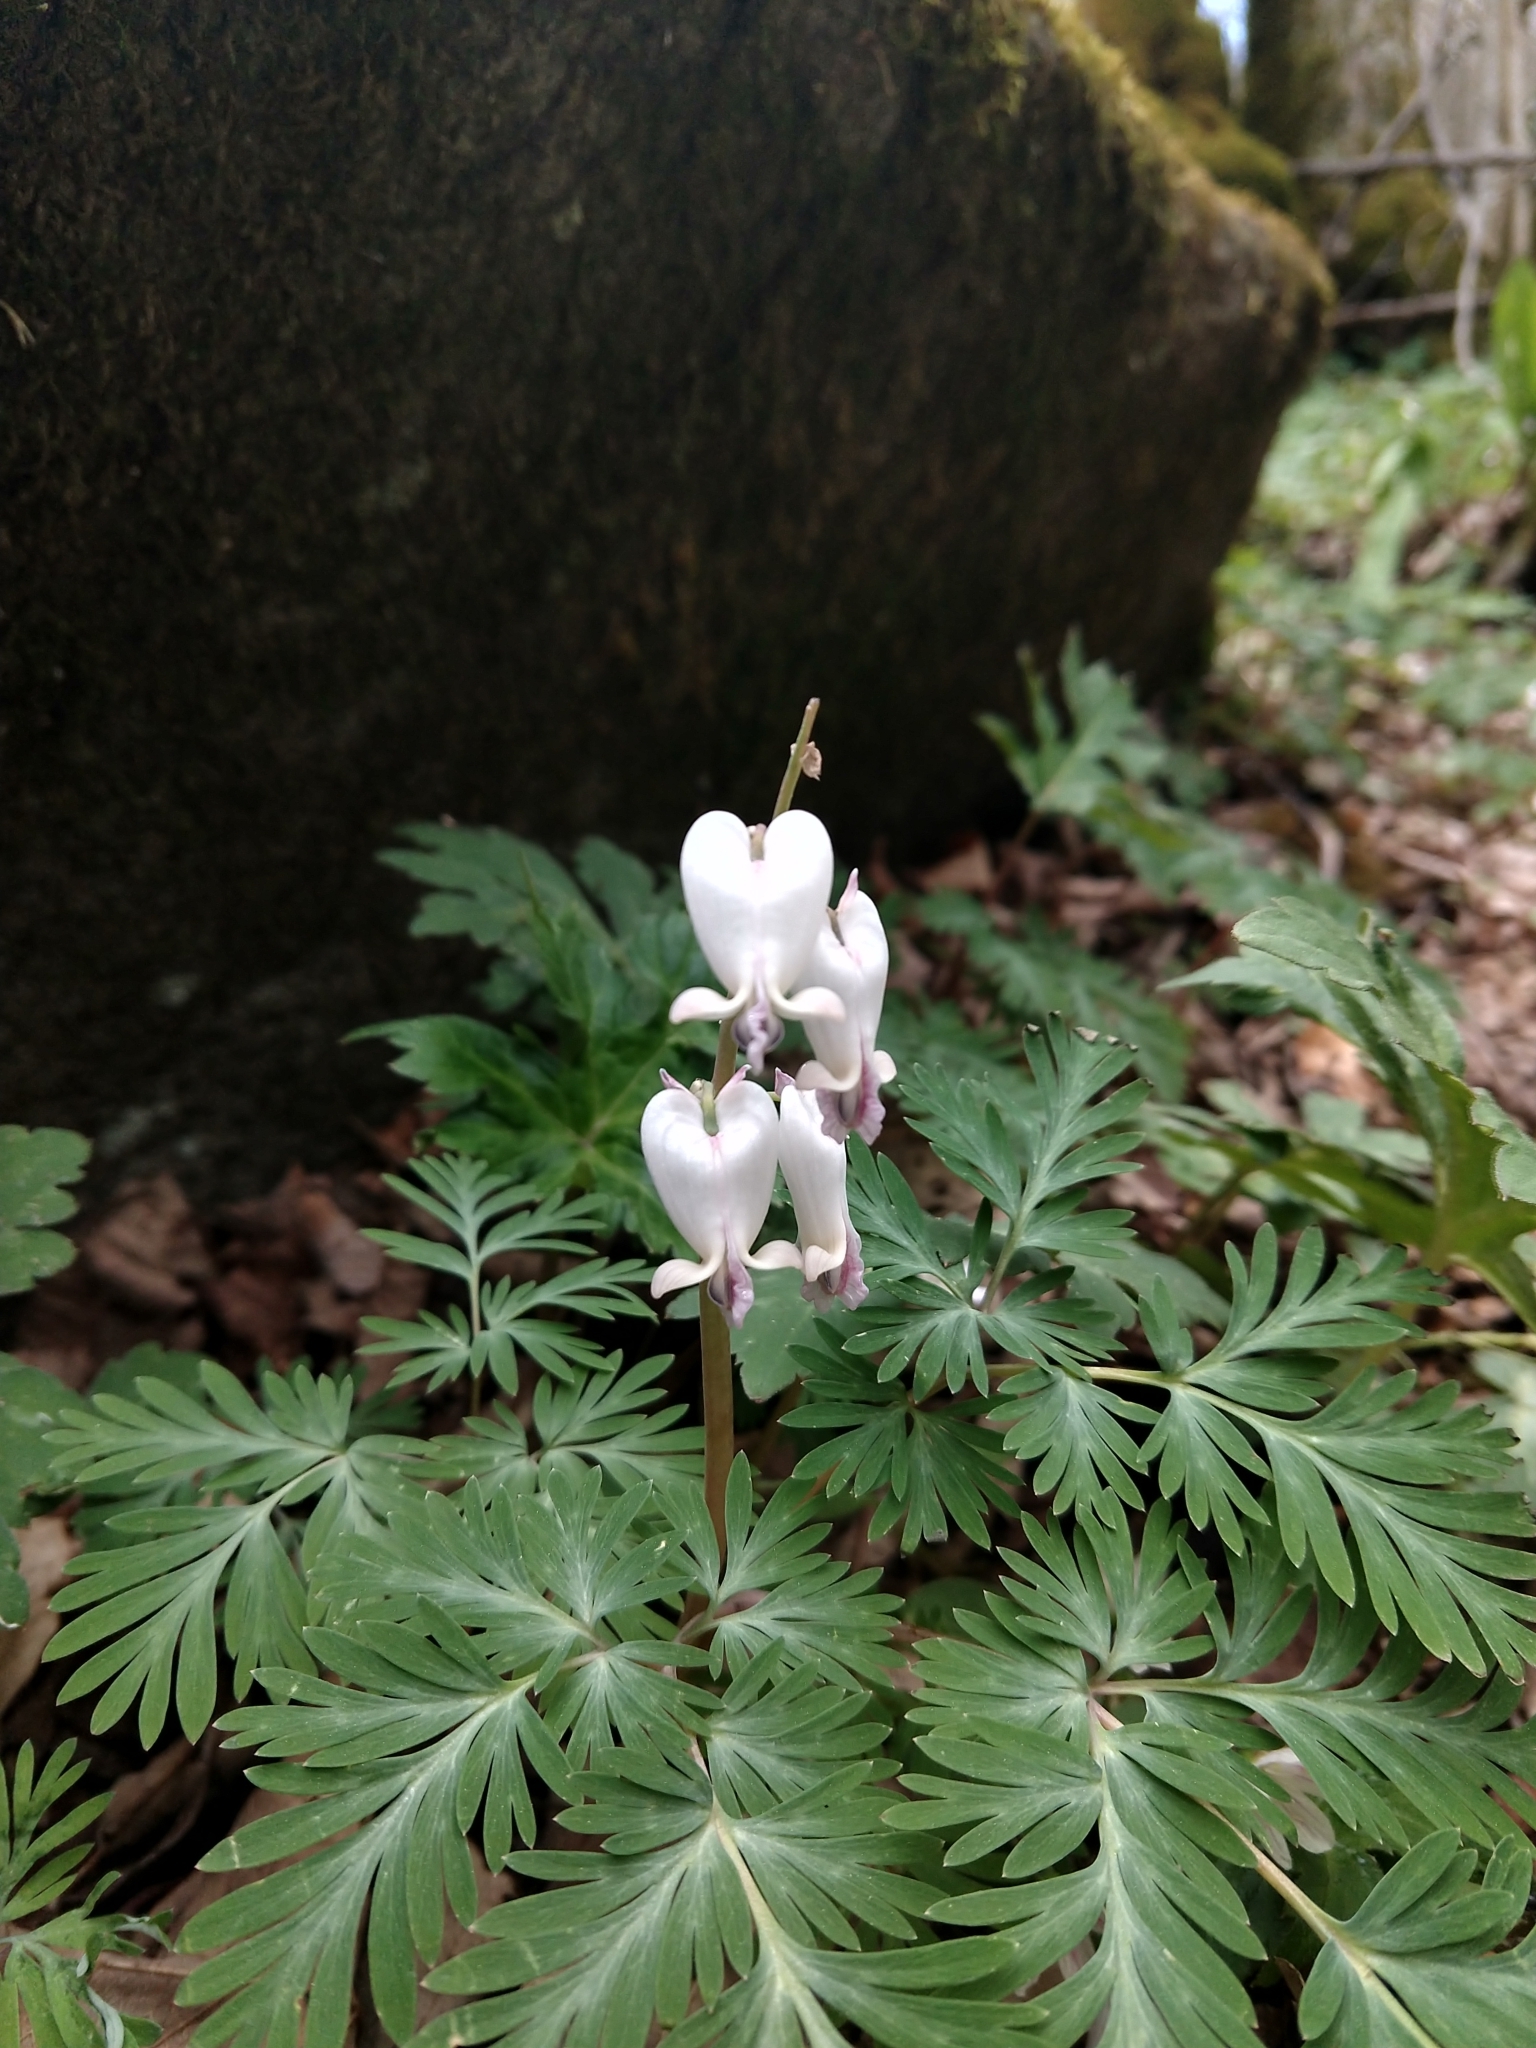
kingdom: Plantae
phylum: Tracheophyta
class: Magnoliopsida
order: Ranunculales
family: Papaveraceae
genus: Dicentra
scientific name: Dicentra canadensis
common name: Squirrel-corn
